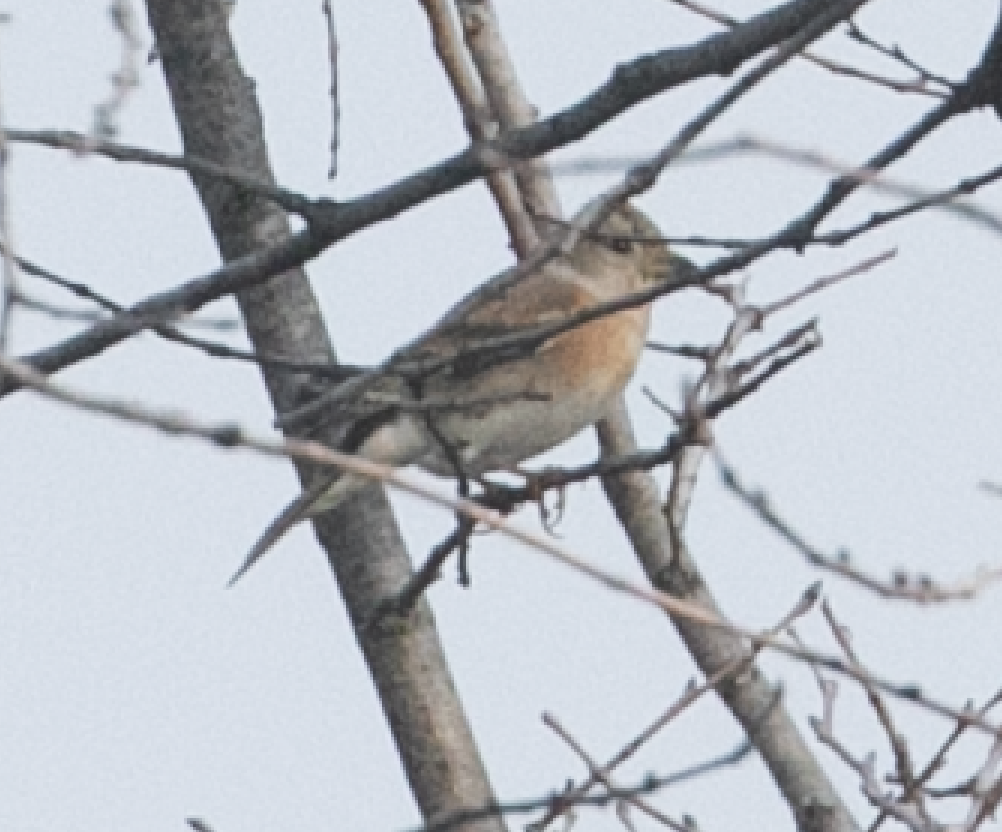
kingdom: Animalia
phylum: Chordata
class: Aves
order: Passeriformes
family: Fringillidae
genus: Fringilla
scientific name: Fringilla montifringilla
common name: Brambling
